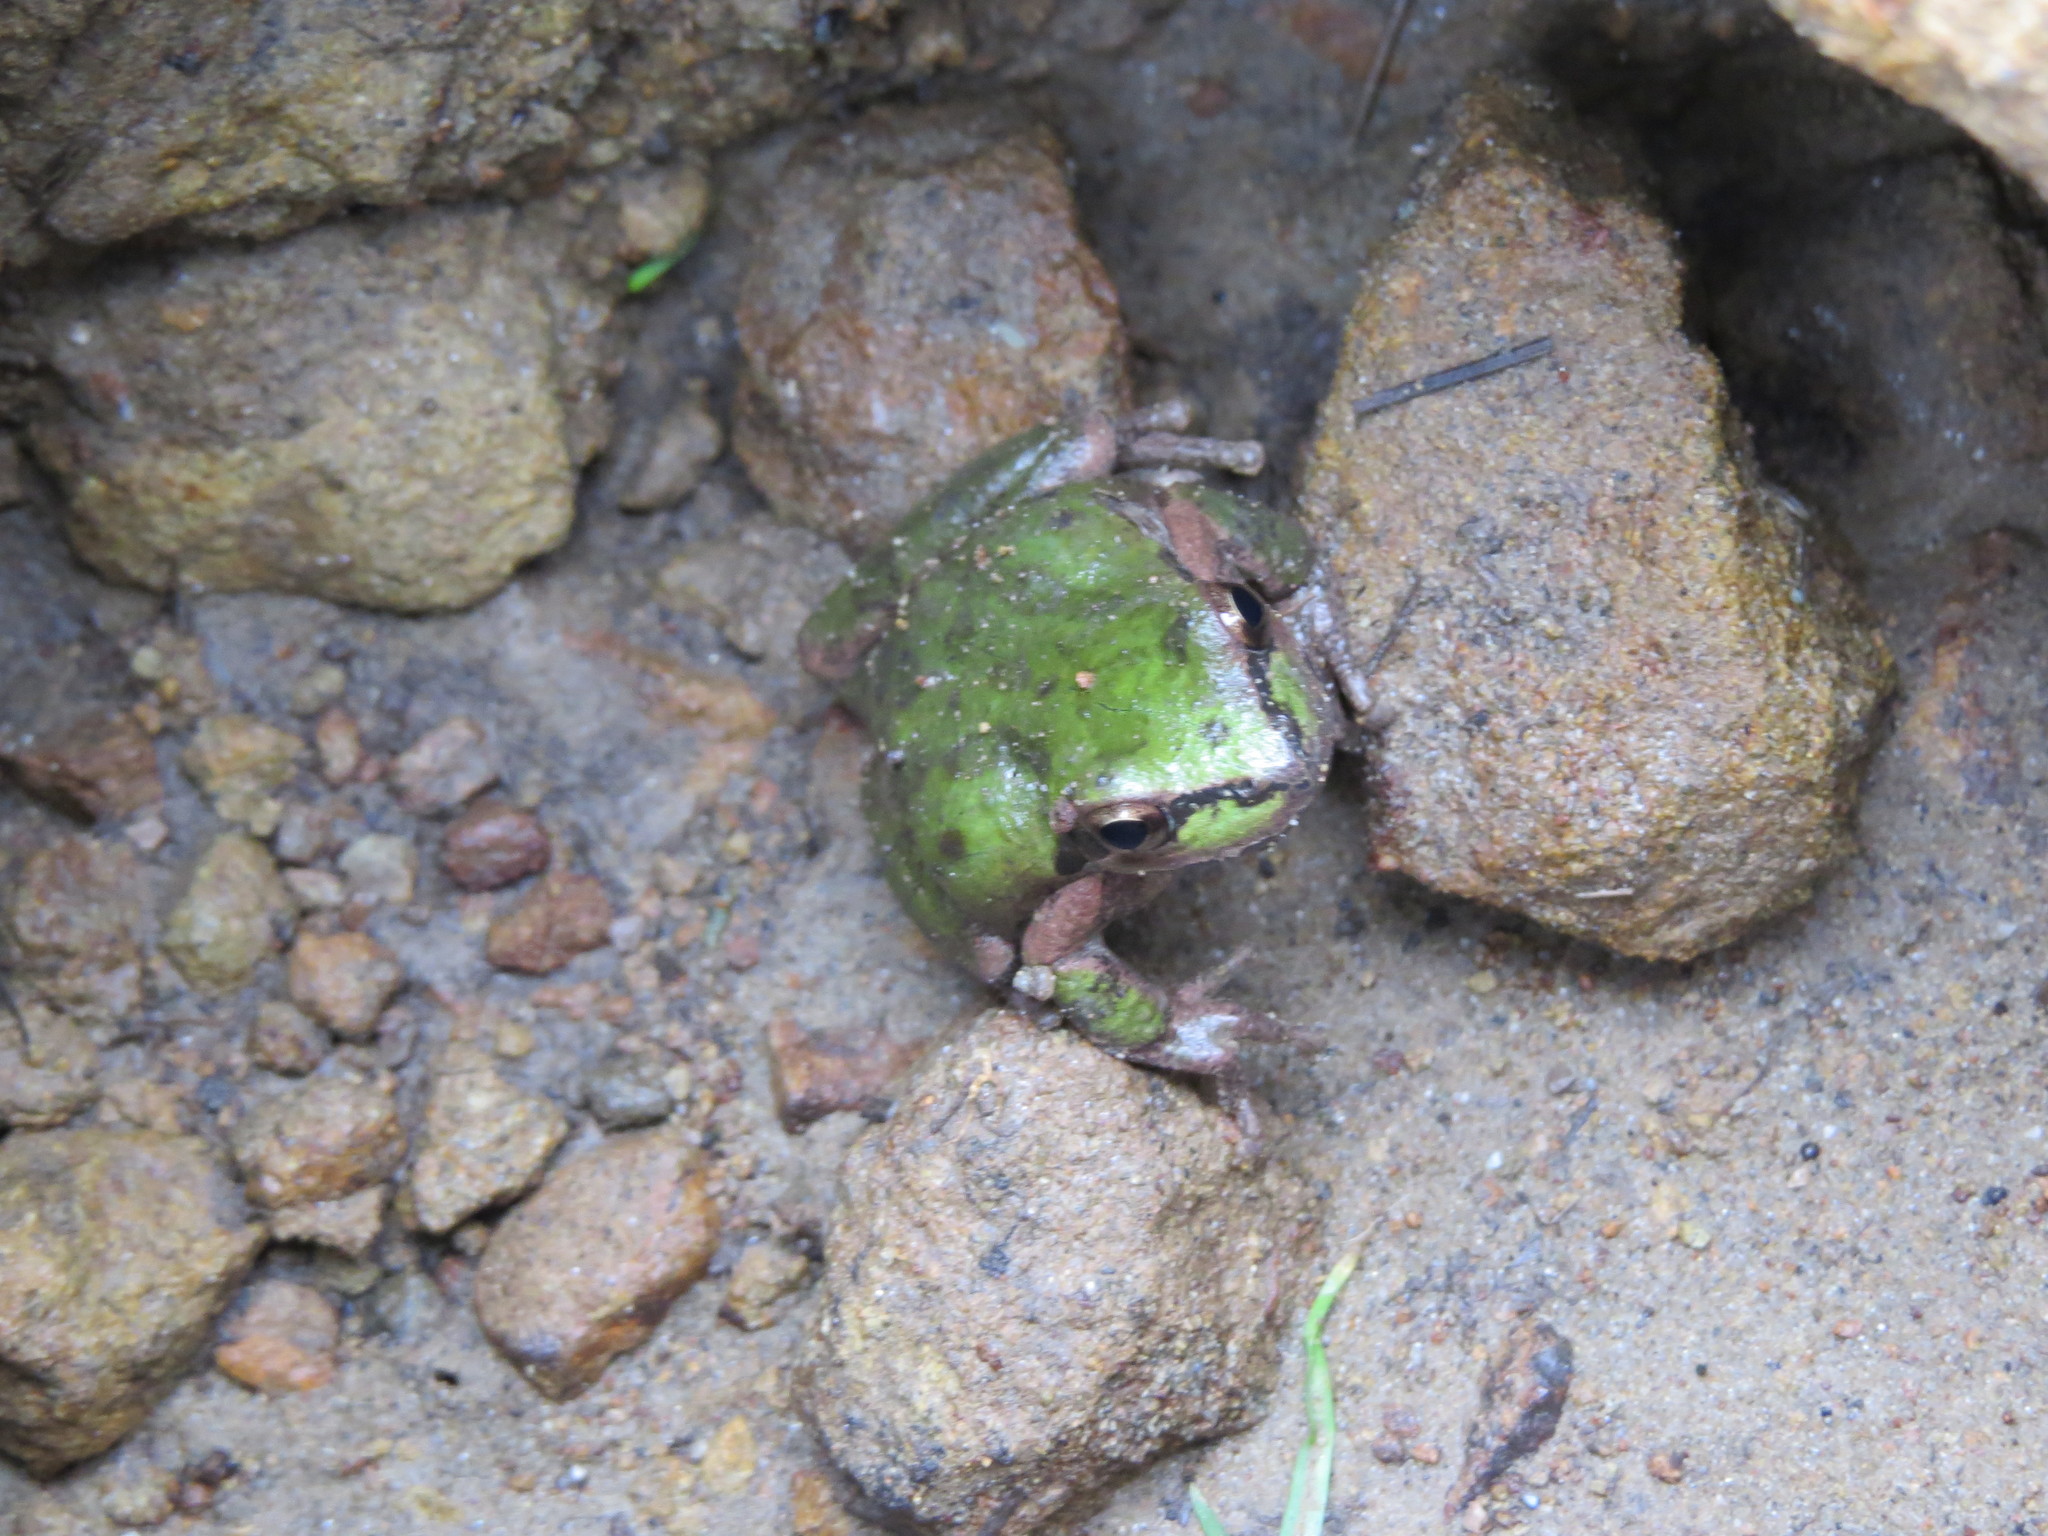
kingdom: Animalia
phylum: Chordata
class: Amphibia
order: Anura
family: Hylidae
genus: Pseudacris
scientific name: Pseudacris regilla
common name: Pacific chorus frog
